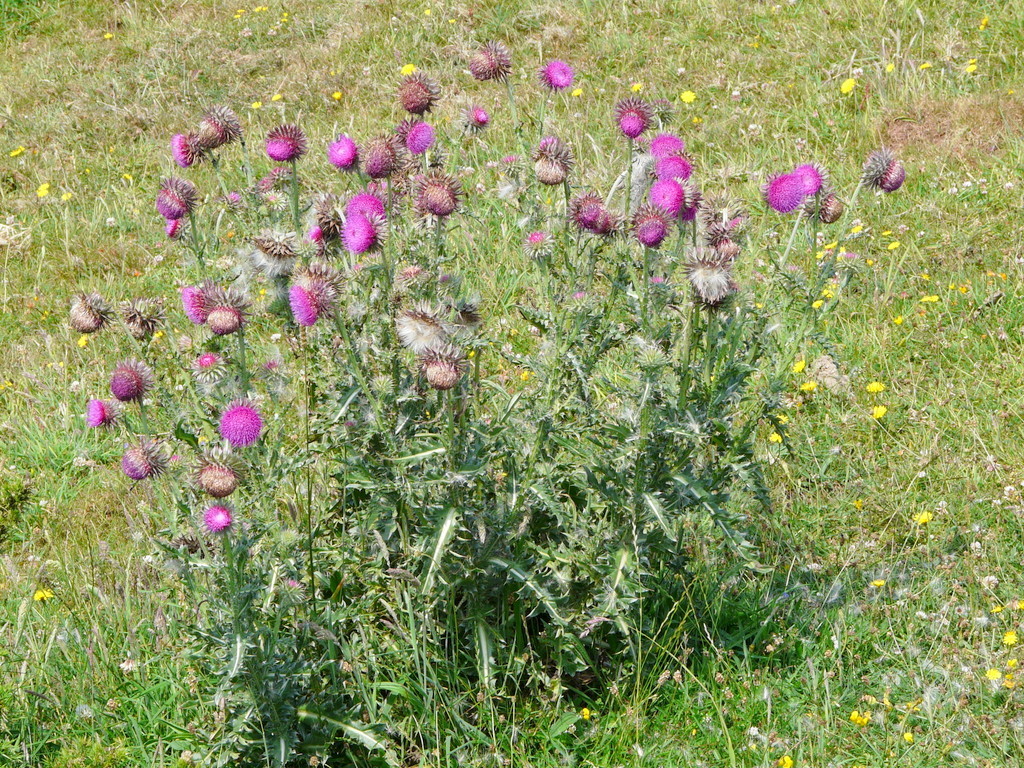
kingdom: Plantae
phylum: Tracheophyta
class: Magnoliopsida
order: Asterales
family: Asteraceae
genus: Carduus
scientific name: Carduus nutans
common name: Musk thistle
